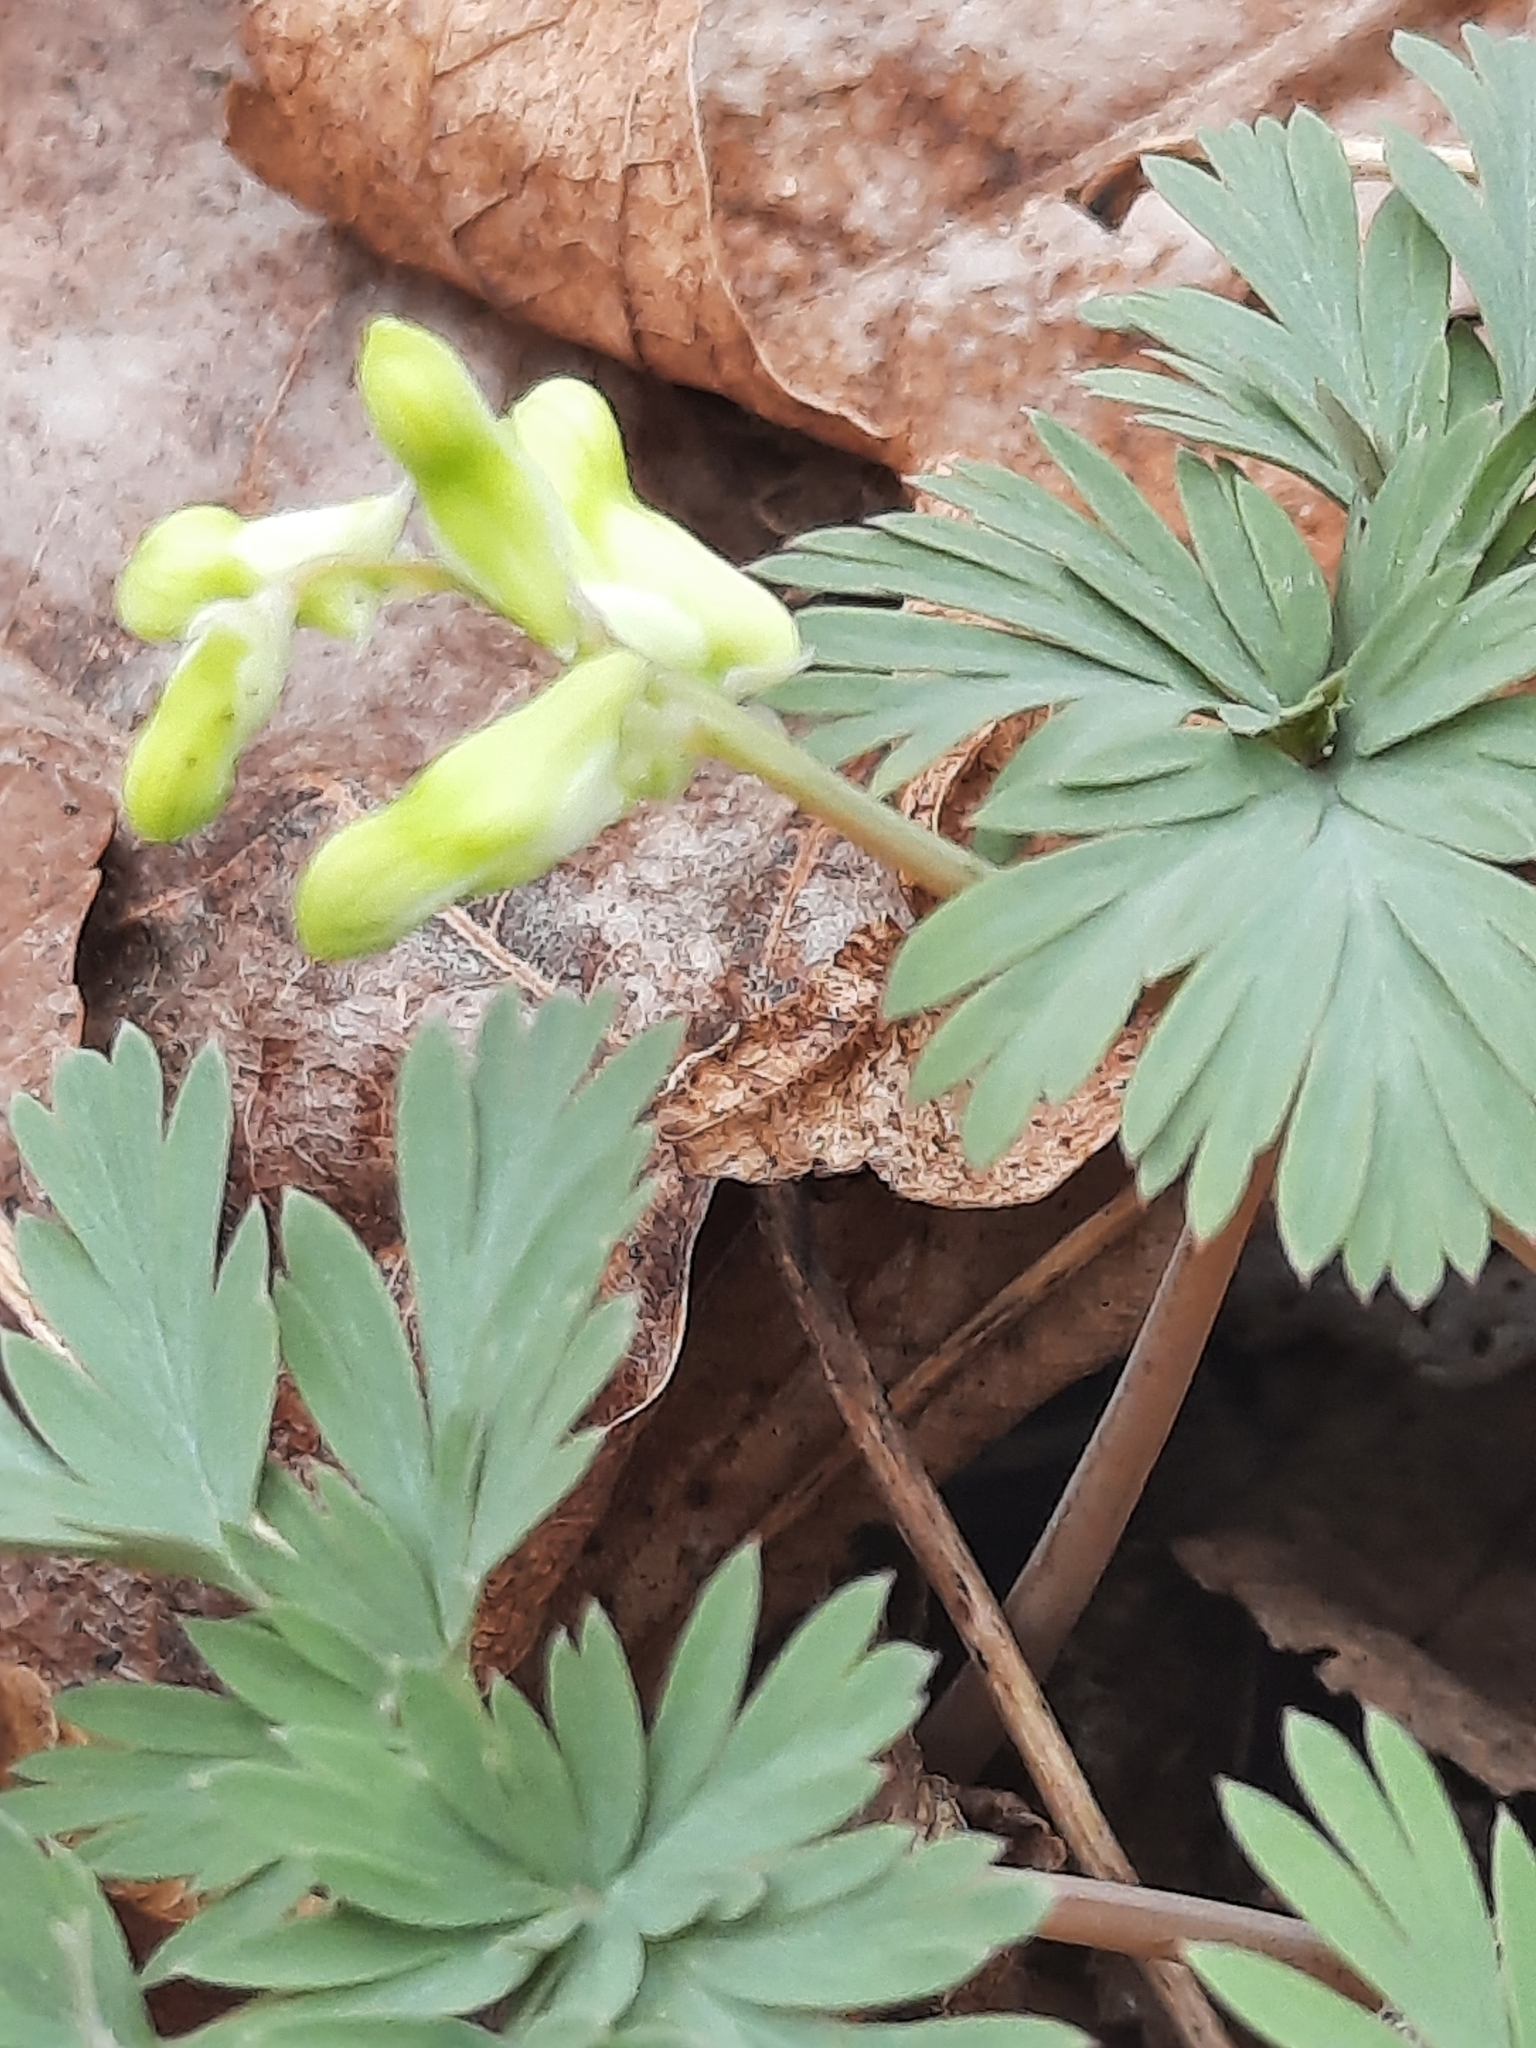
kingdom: Plantae
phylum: Tracheophyta
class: Magnoliopsida
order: Ranunculales
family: Papaveraceae
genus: Dicentra
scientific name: Dicentra cucullaria
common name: Dutchman's breeches
